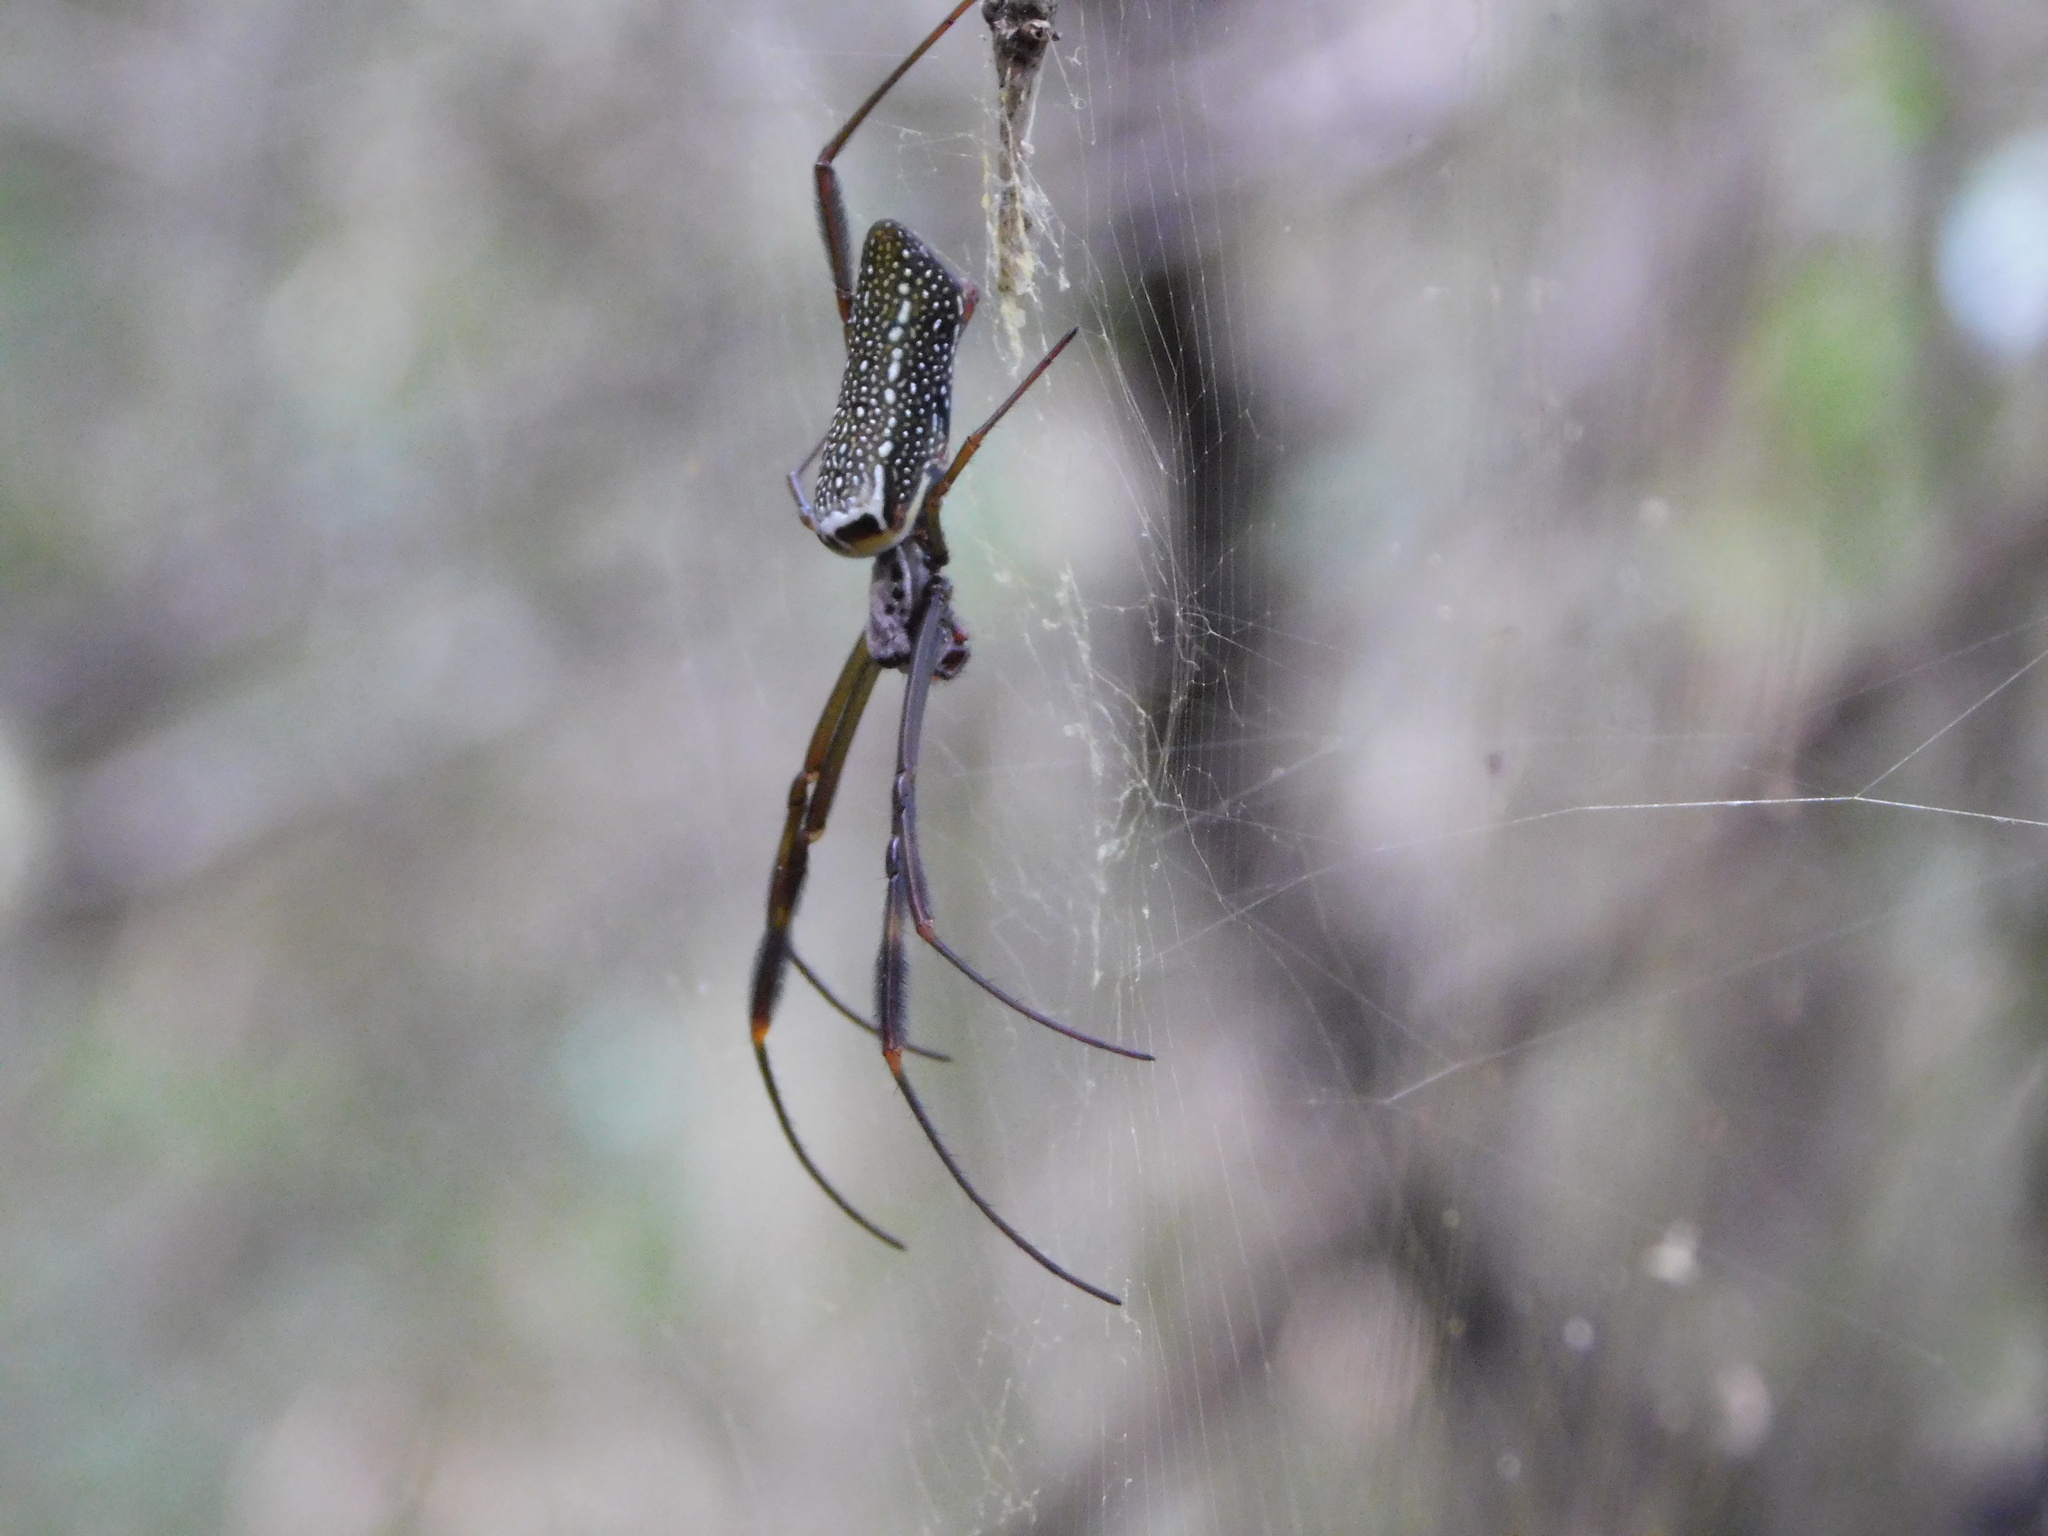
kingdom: Animalia
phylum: Arthropoda
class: Arachnida
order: Araneae
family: Araneidae
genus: Trichonephila
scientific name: Trichonephila clavipes
